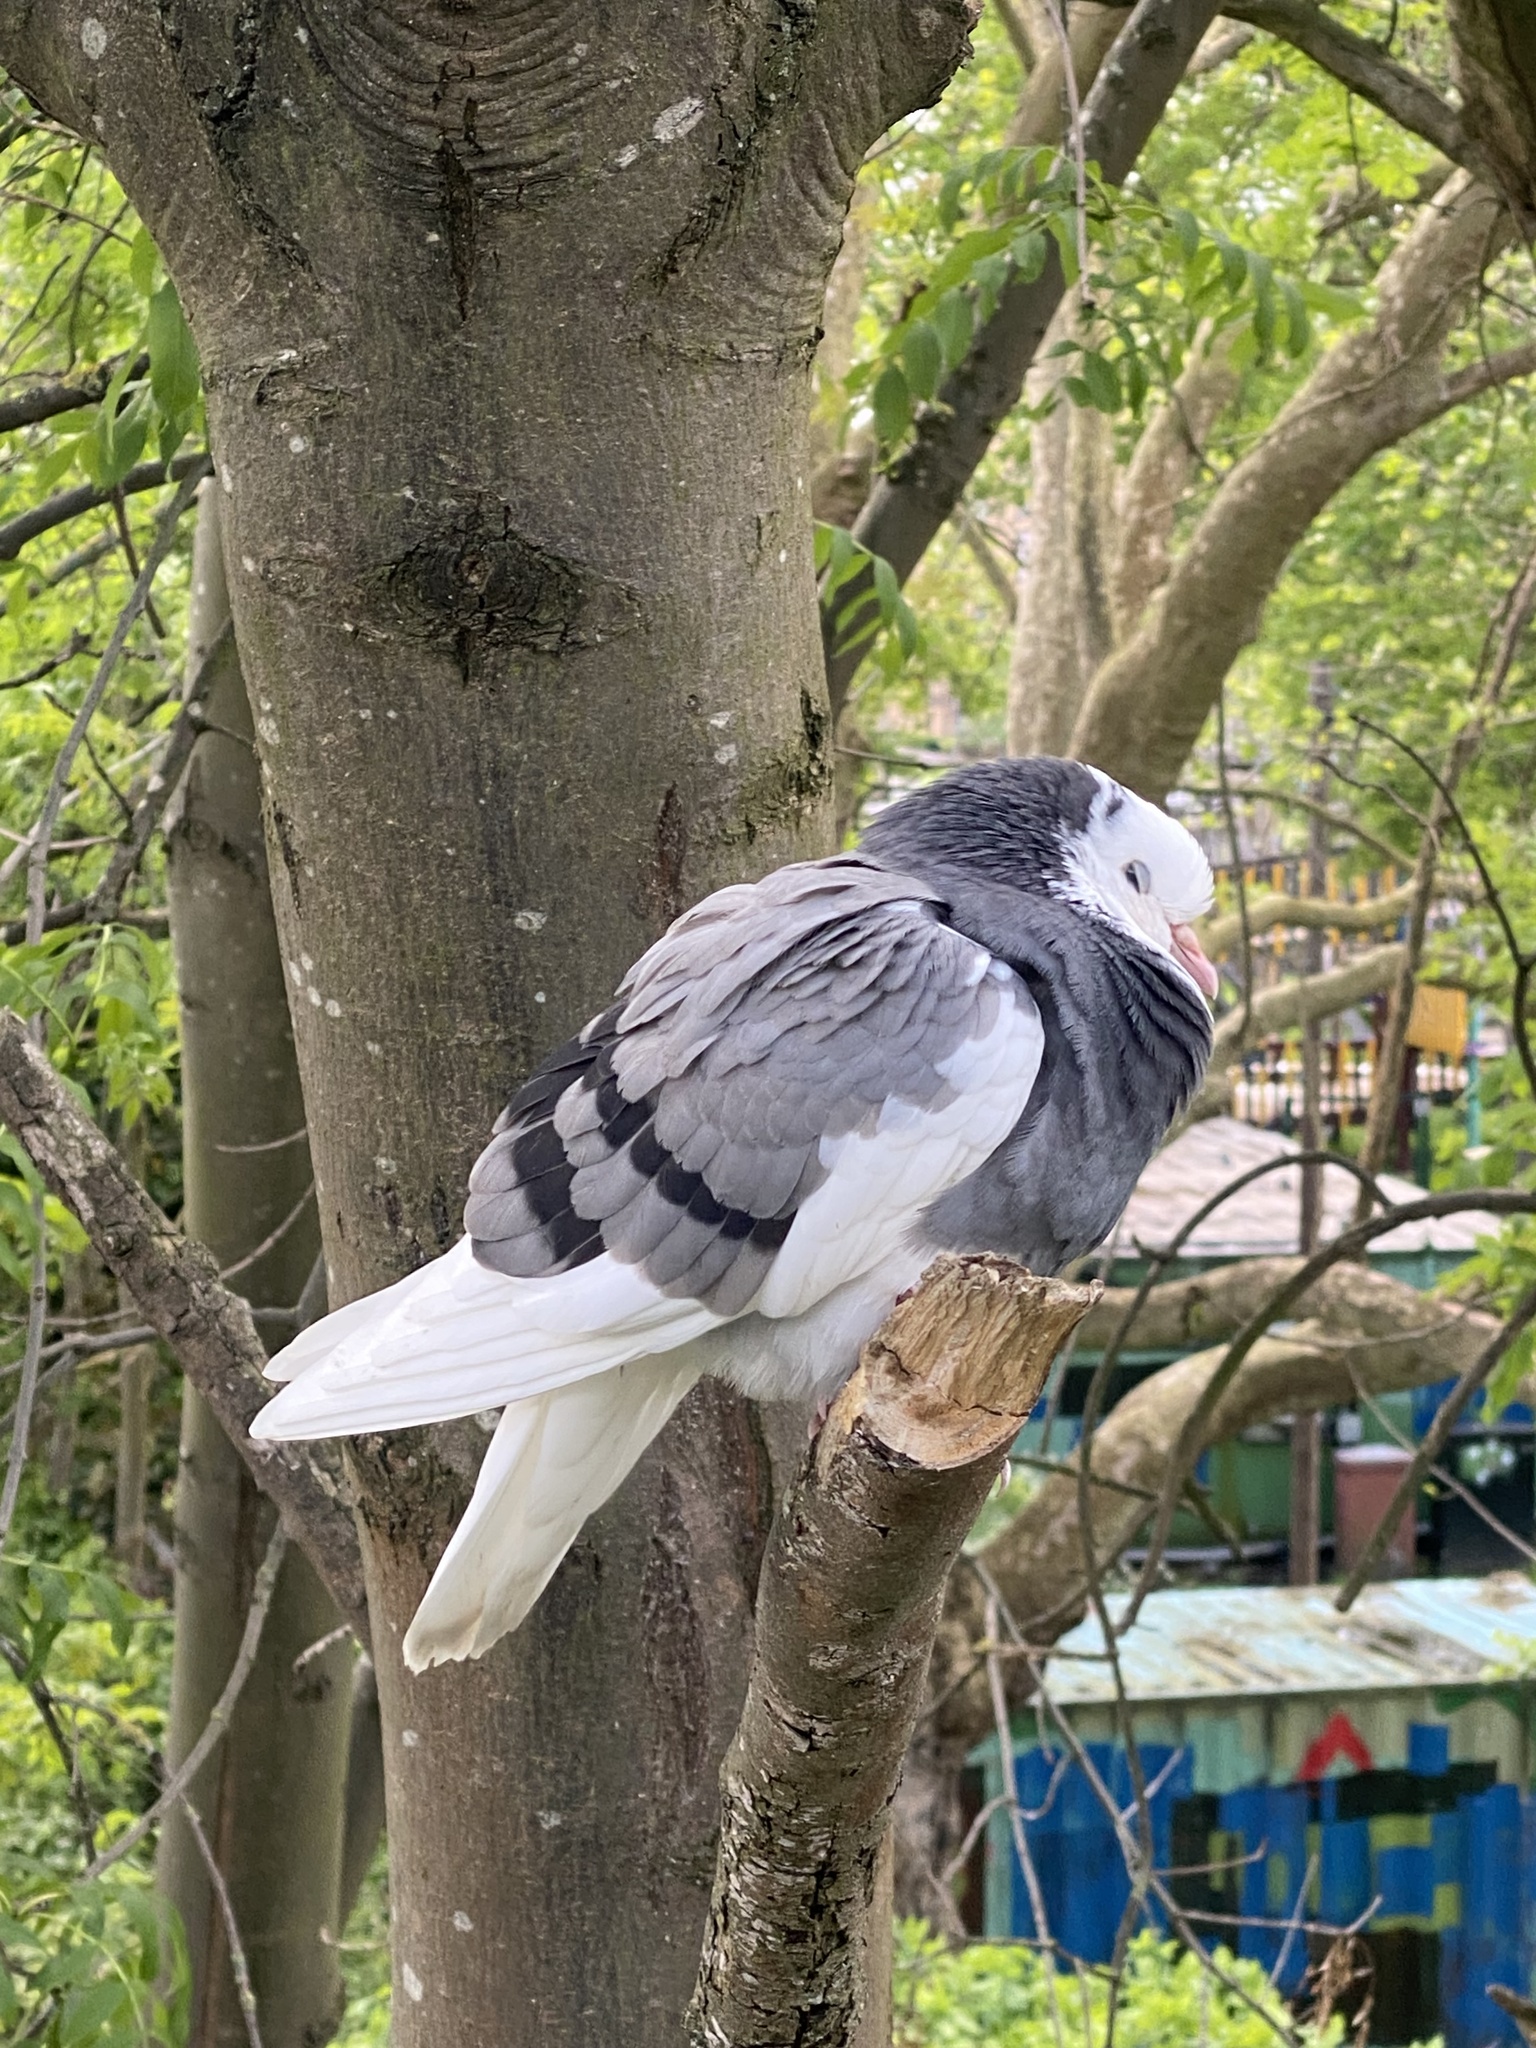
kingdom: Animalia
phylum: Chordata
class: Aves
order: Columbiformes
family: Columbidae
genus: Columba
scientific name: Columba livia
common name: Rock pigeon
